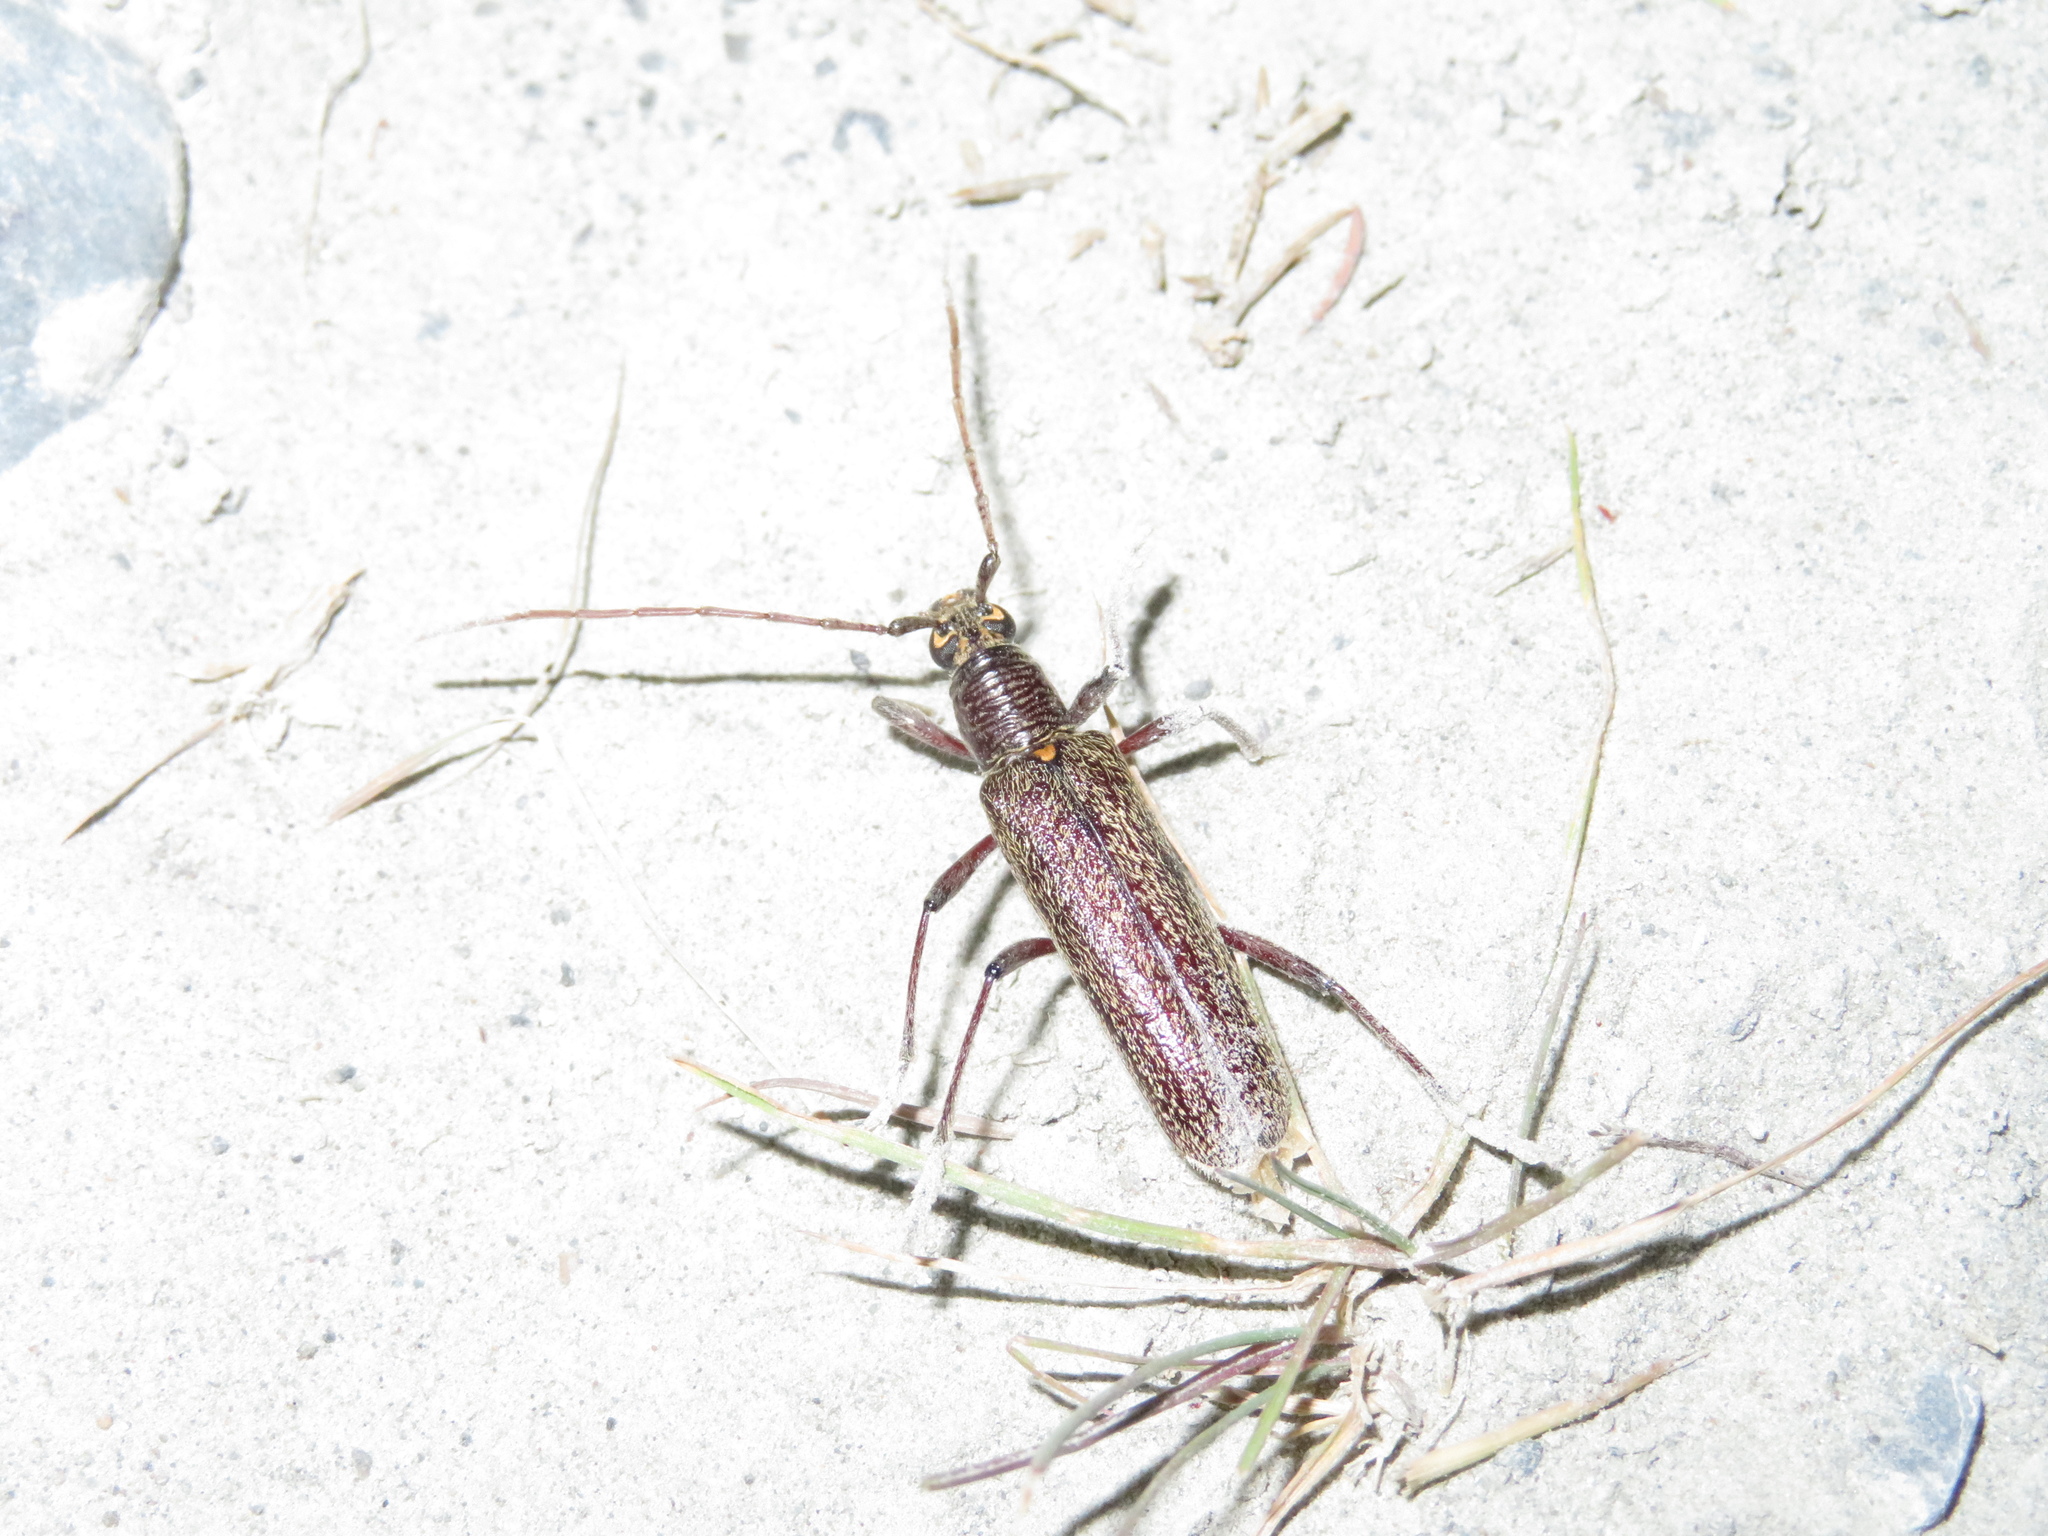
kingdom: Animalia
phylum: Arthropoda
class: Insecta
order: Coleoptera
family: Cerambycidae
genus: Oemona
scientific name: Oemona hirta
